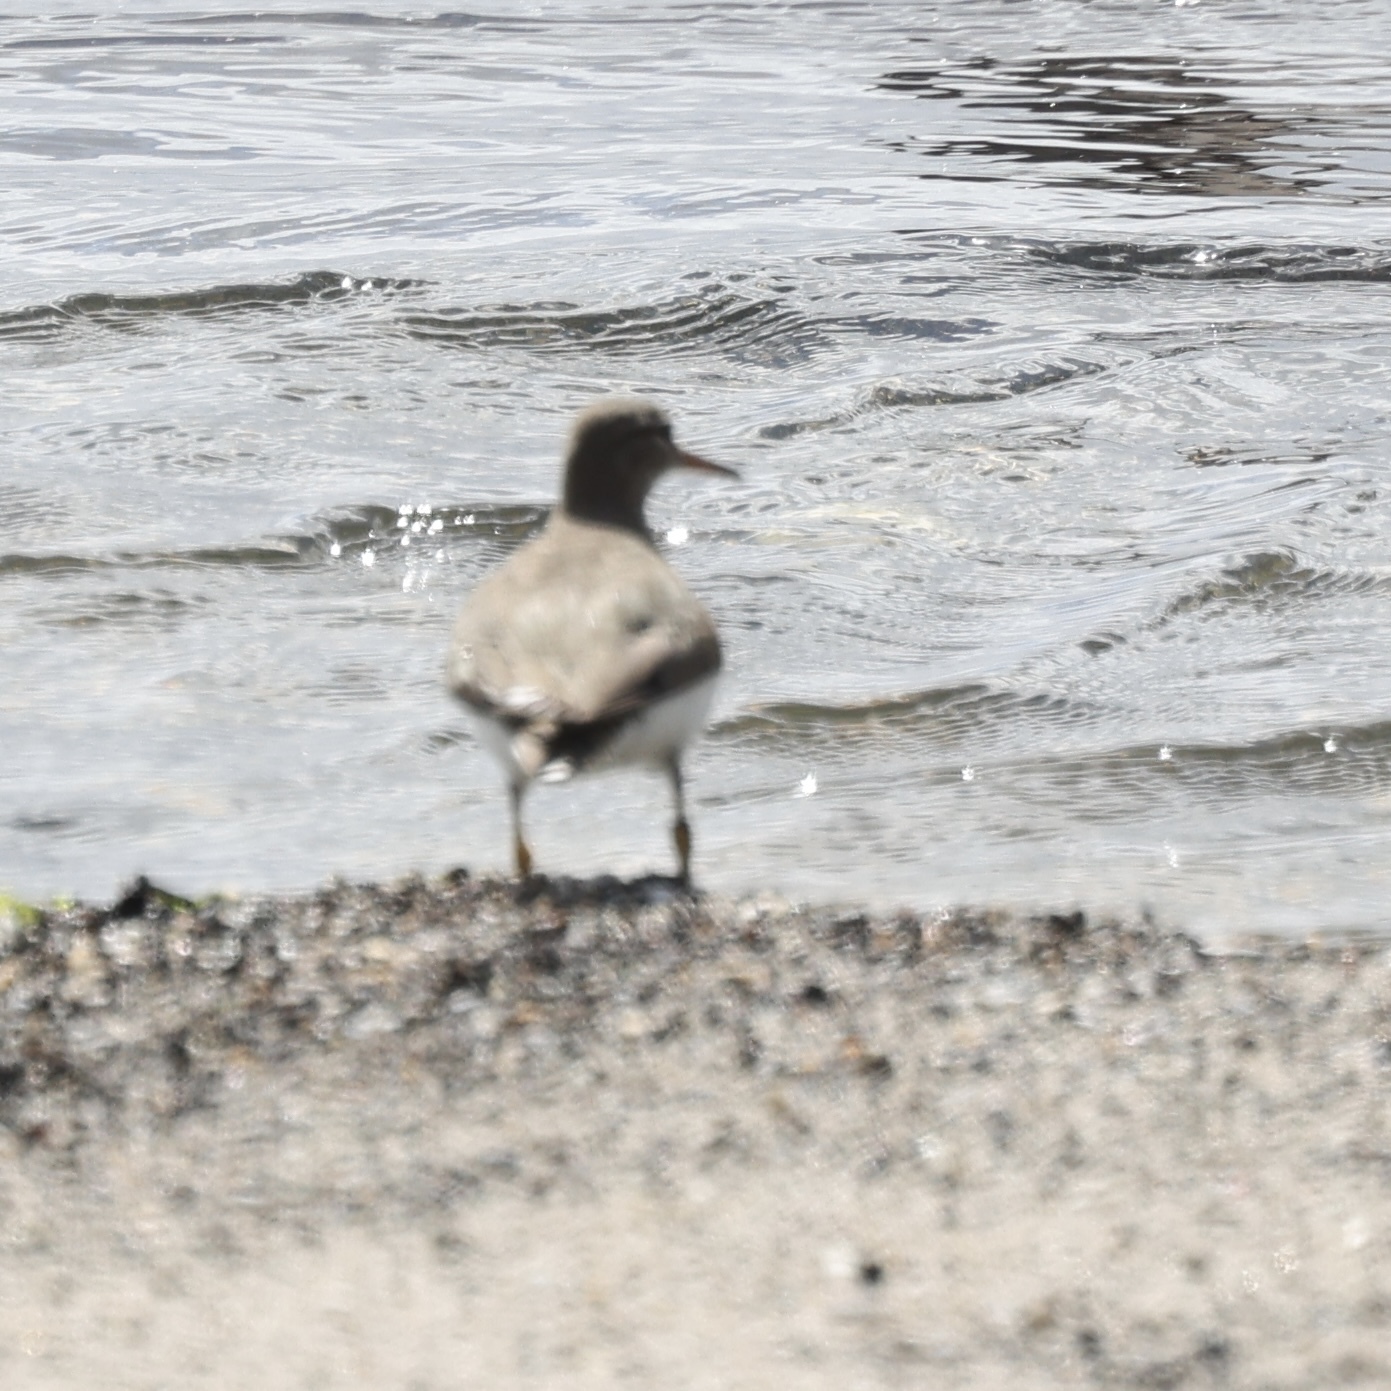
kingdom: Animalia
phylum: Chordata
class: Aves
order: Charadriiformes
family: Scolopacidae
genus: Actitis
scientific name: Actitis macularius
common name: Spotted sandpiper
